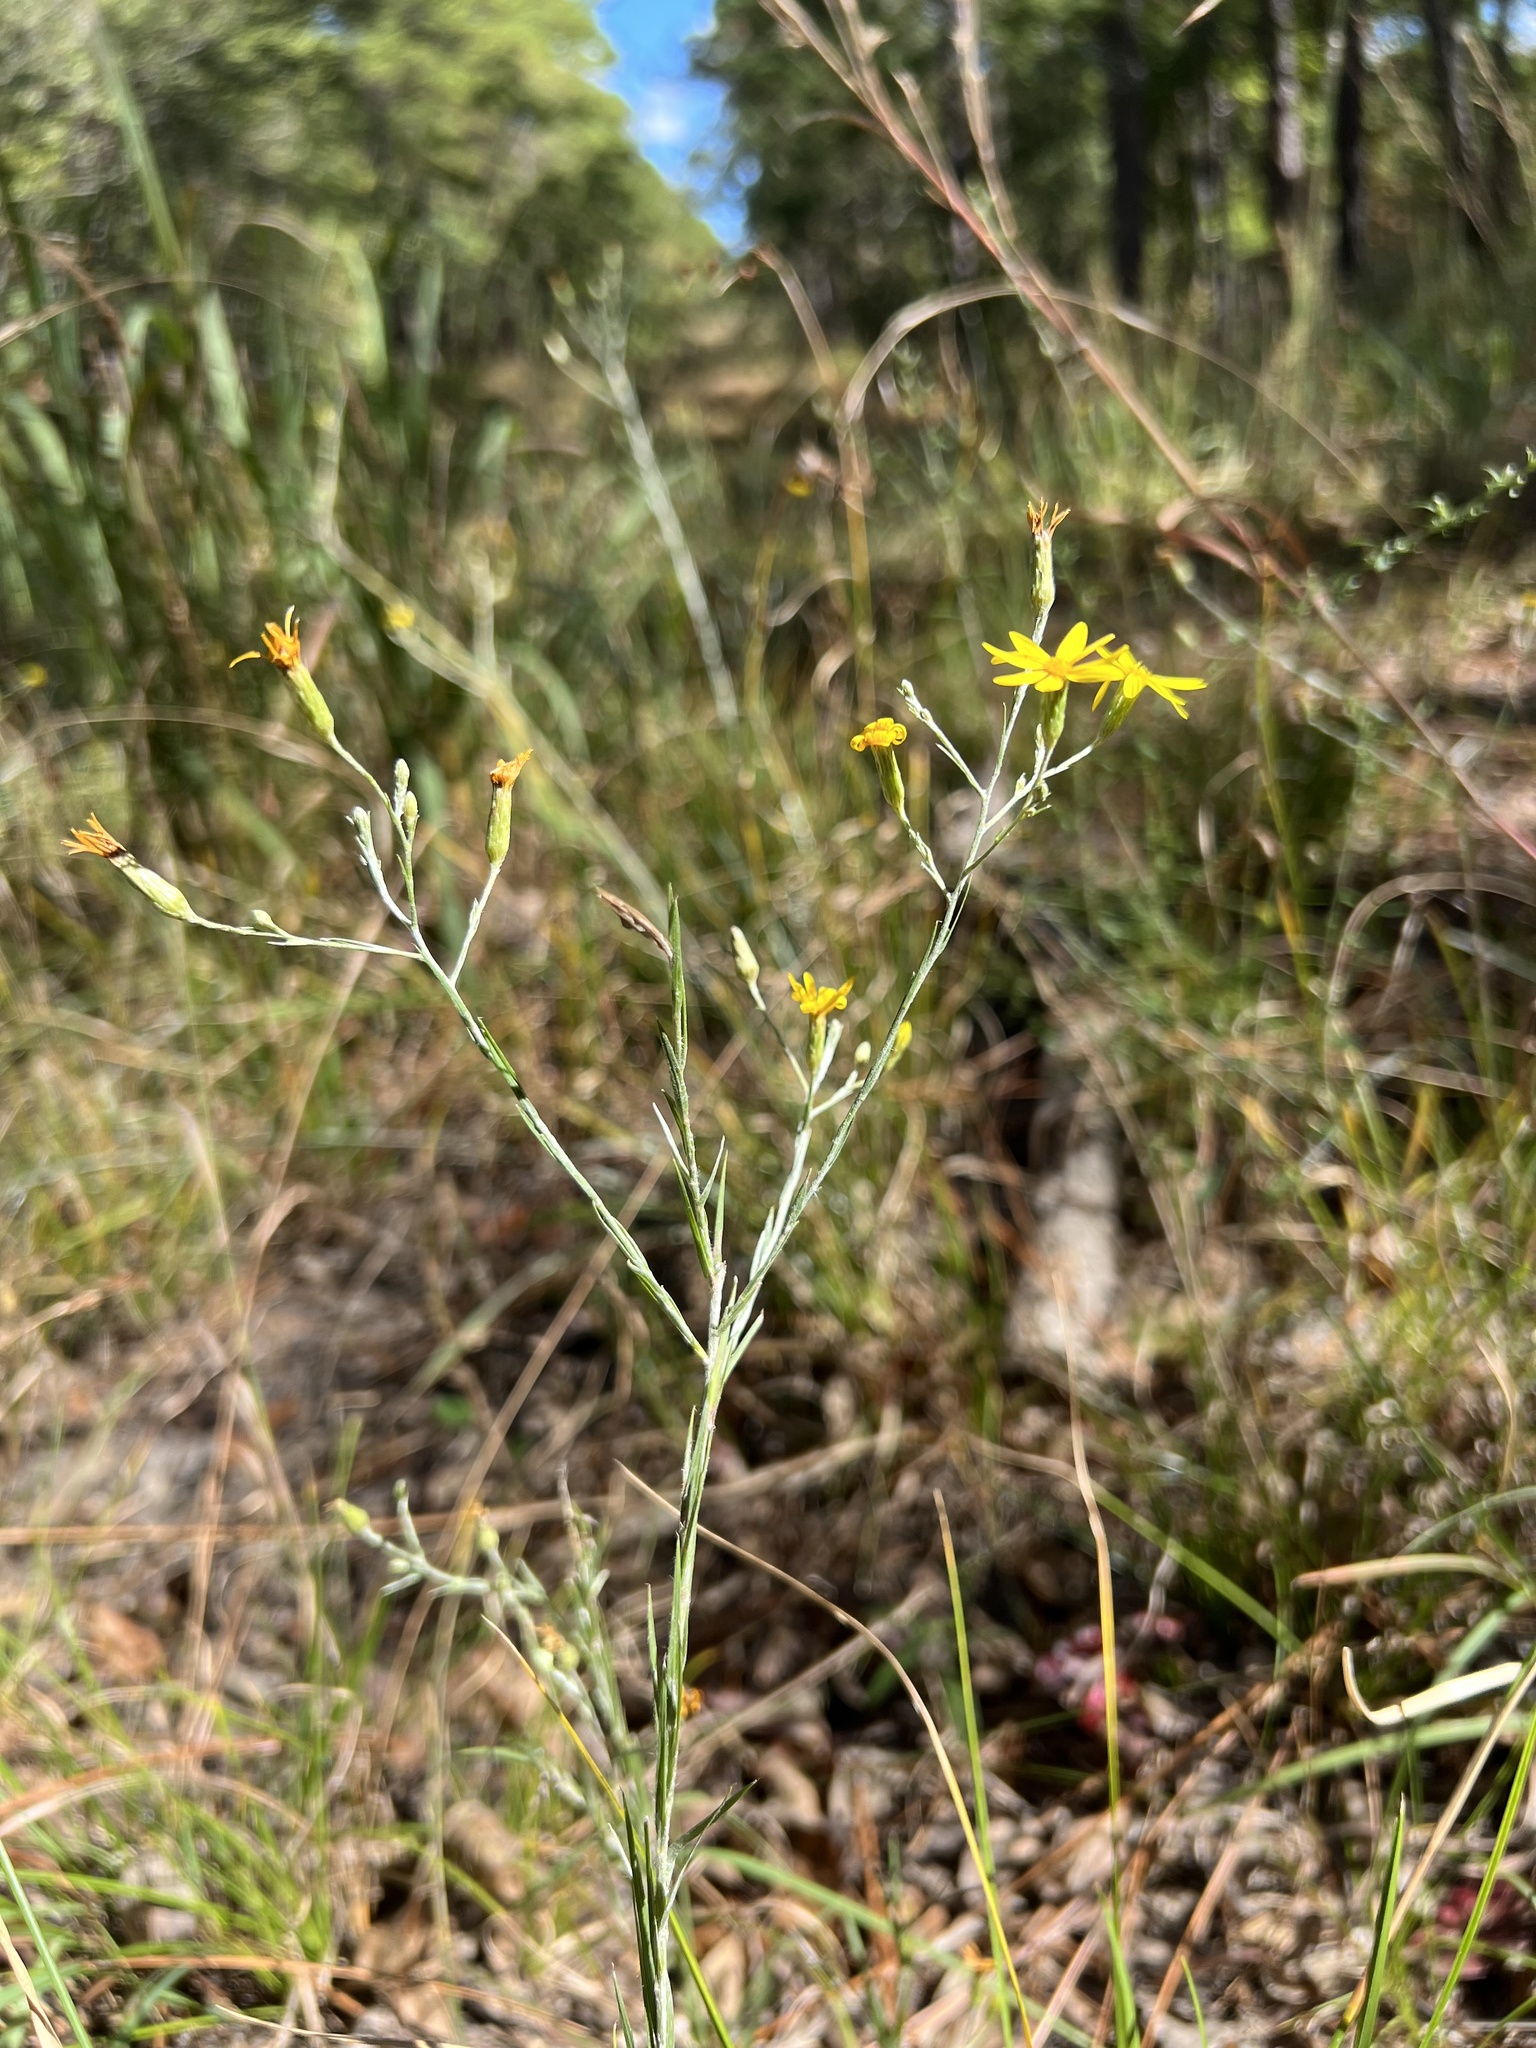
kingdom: Plantae
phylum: Tracheophyta
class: Magnoliopsida
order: Asterales
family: Asteraceae
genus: Pityopsis
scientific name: Pityopsis graminifolia
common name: Grass-leaf golden-aster
